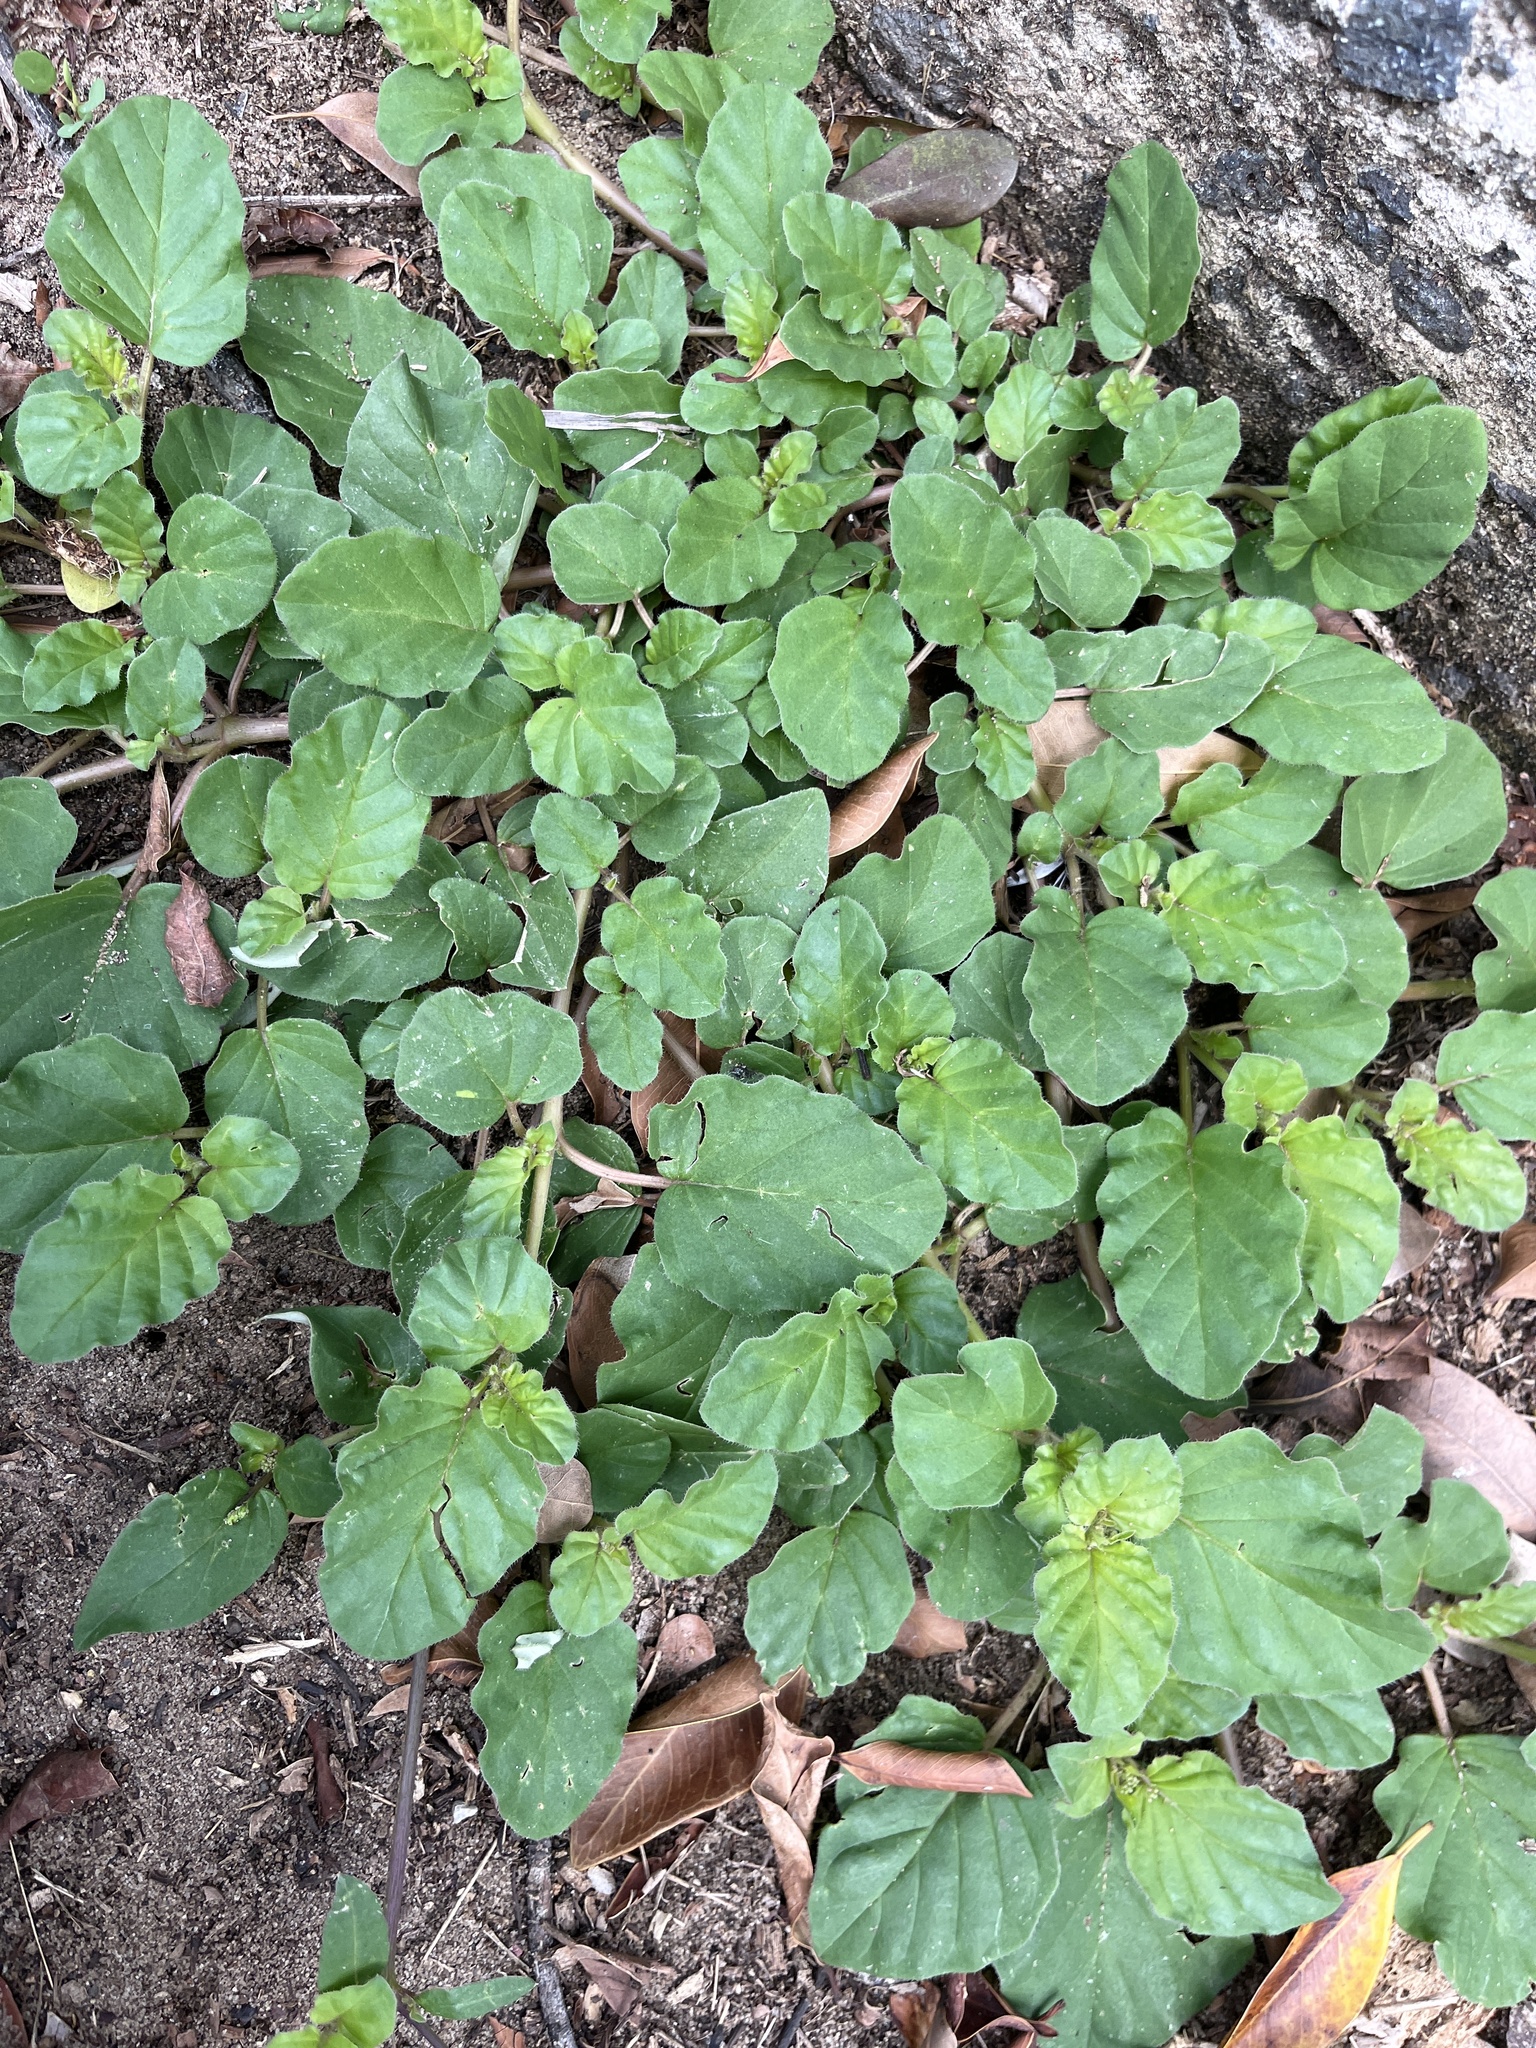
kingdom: Plantae
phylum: Tracheophyta
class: Magnoliopsida
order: Caryophyllales
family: Nyctaginaceae
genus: Boerhavia
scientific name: Boerhavia coccinea
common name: Scarlet spiderling
